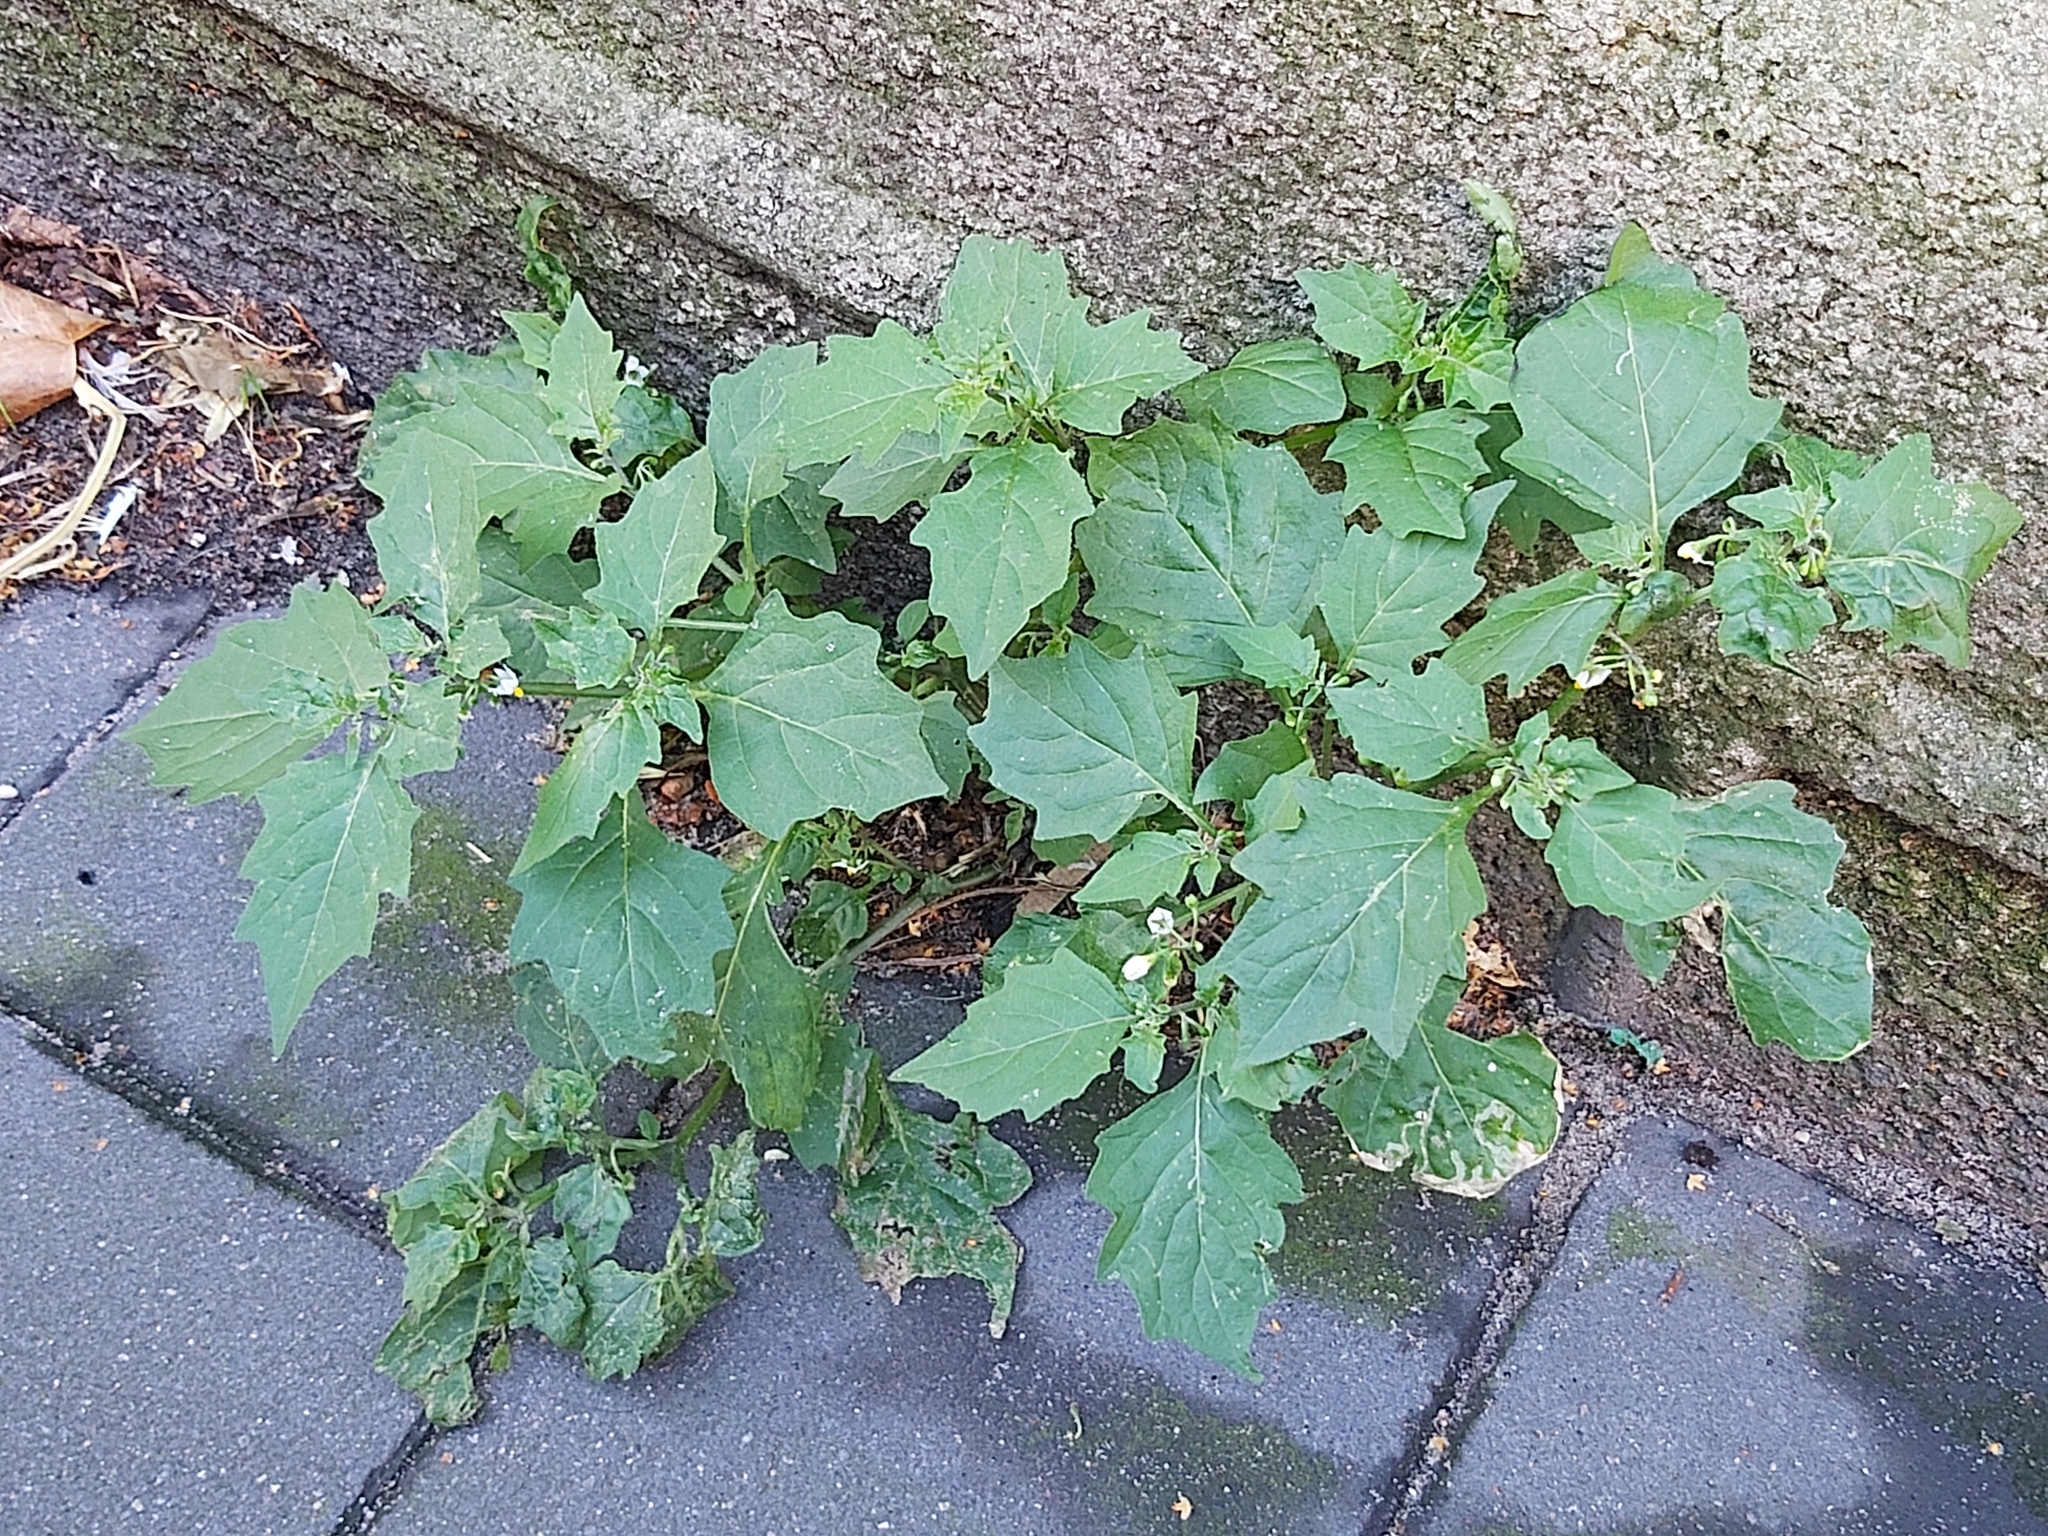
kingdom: Plantae
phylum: Tracheophyta
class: Magnoliopsida
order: Solanales
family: Solanaceae
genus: Solanum
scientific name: Solanum nigrum
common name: Black nightshade
